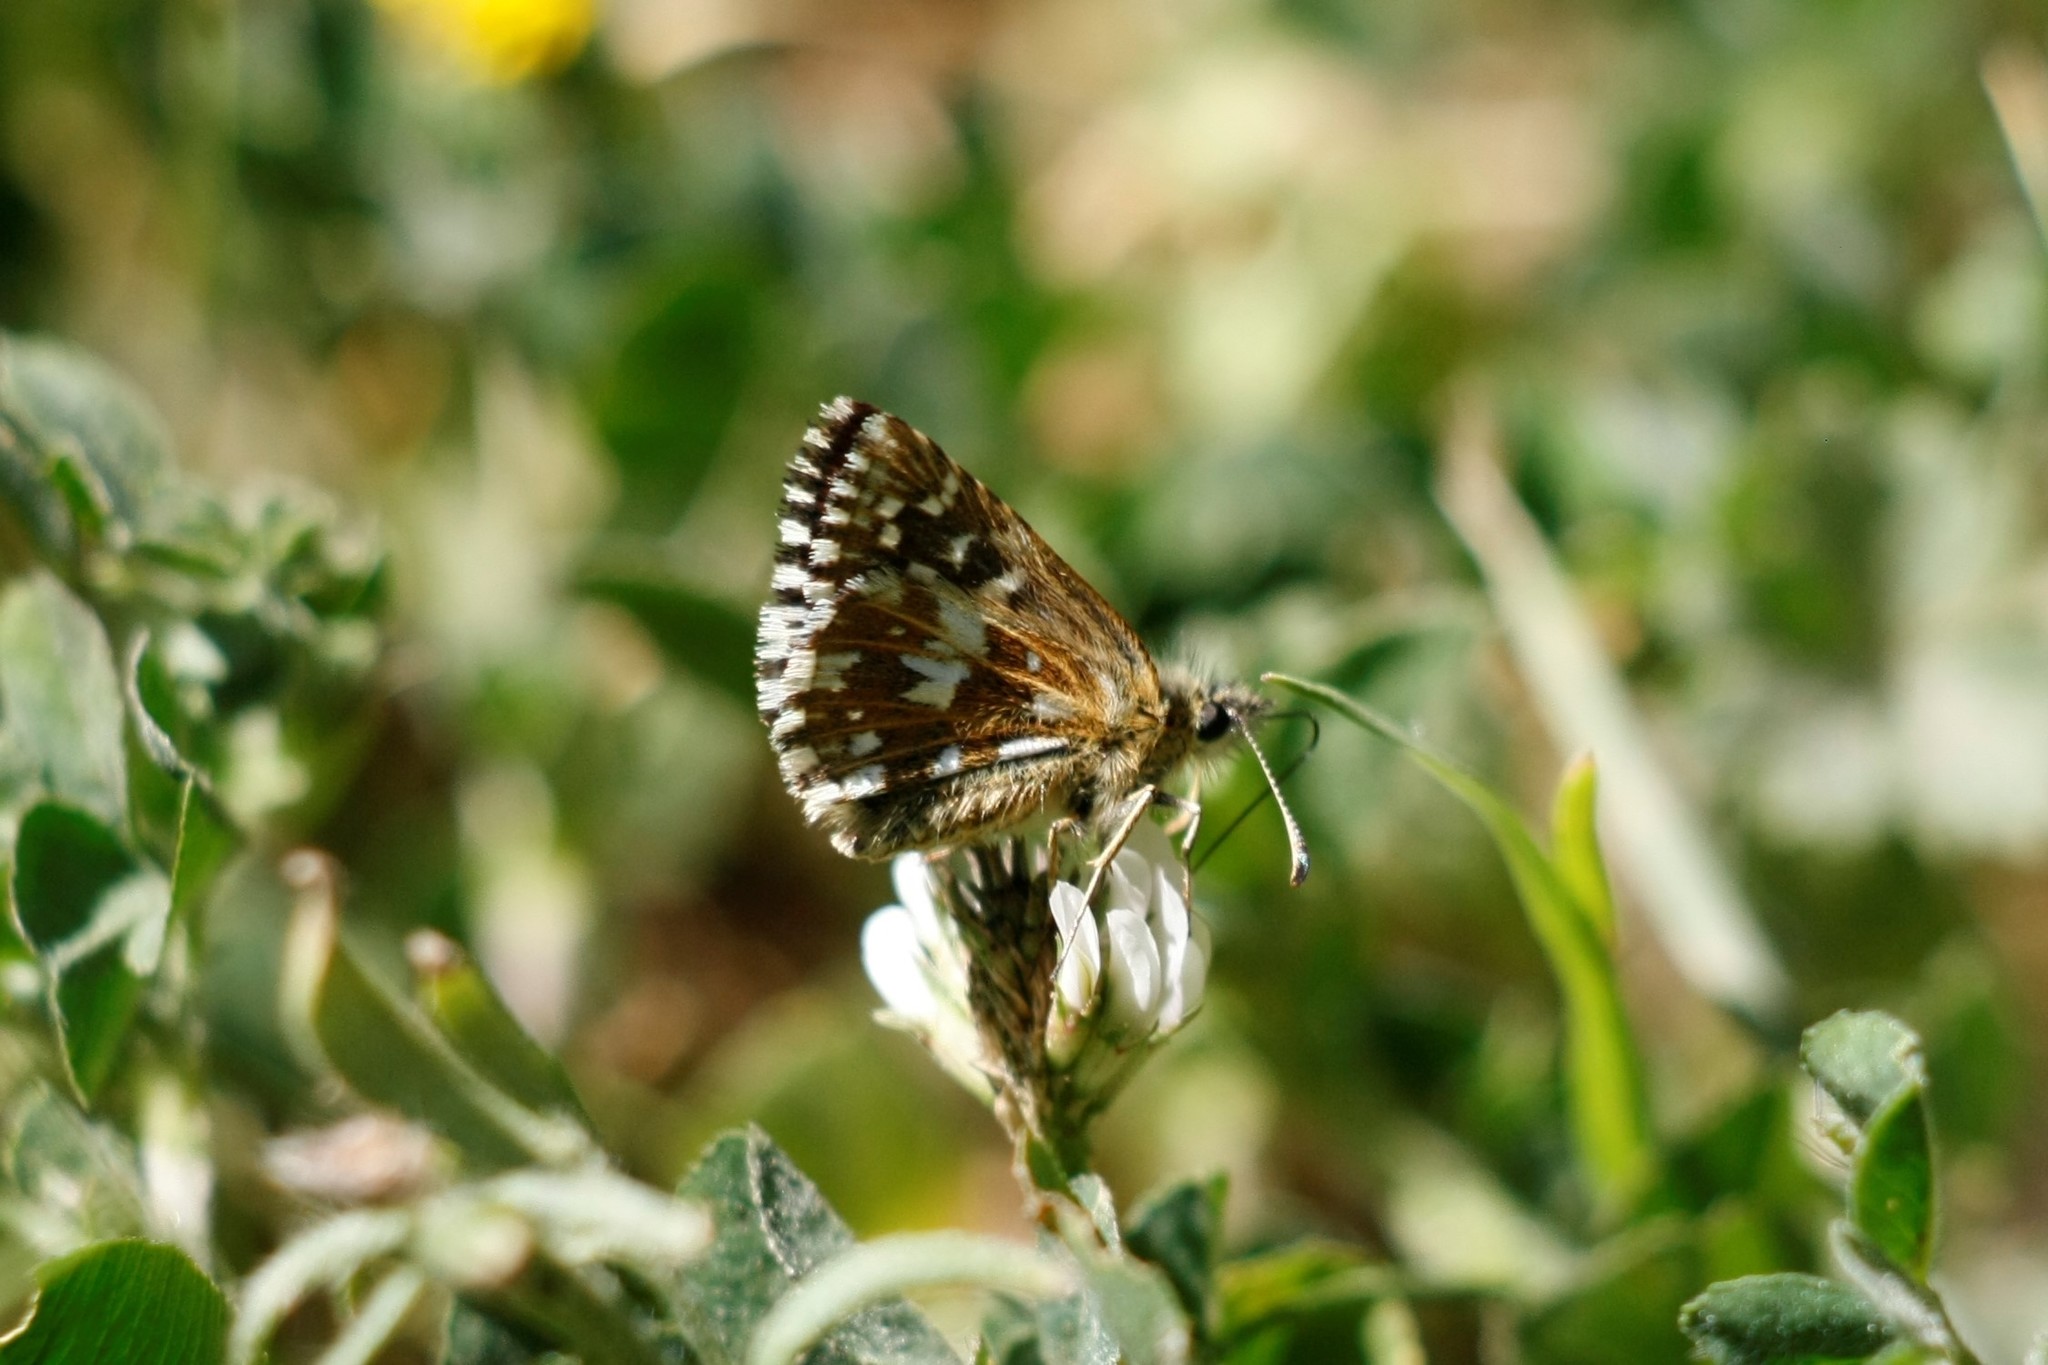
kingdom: Animalia
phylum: Arthropoda
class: Insecta
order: Lepidoptera
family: Hesperiidae
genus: Pyrgus
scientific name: Pyrgus malvae
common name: Grizzled skipper
